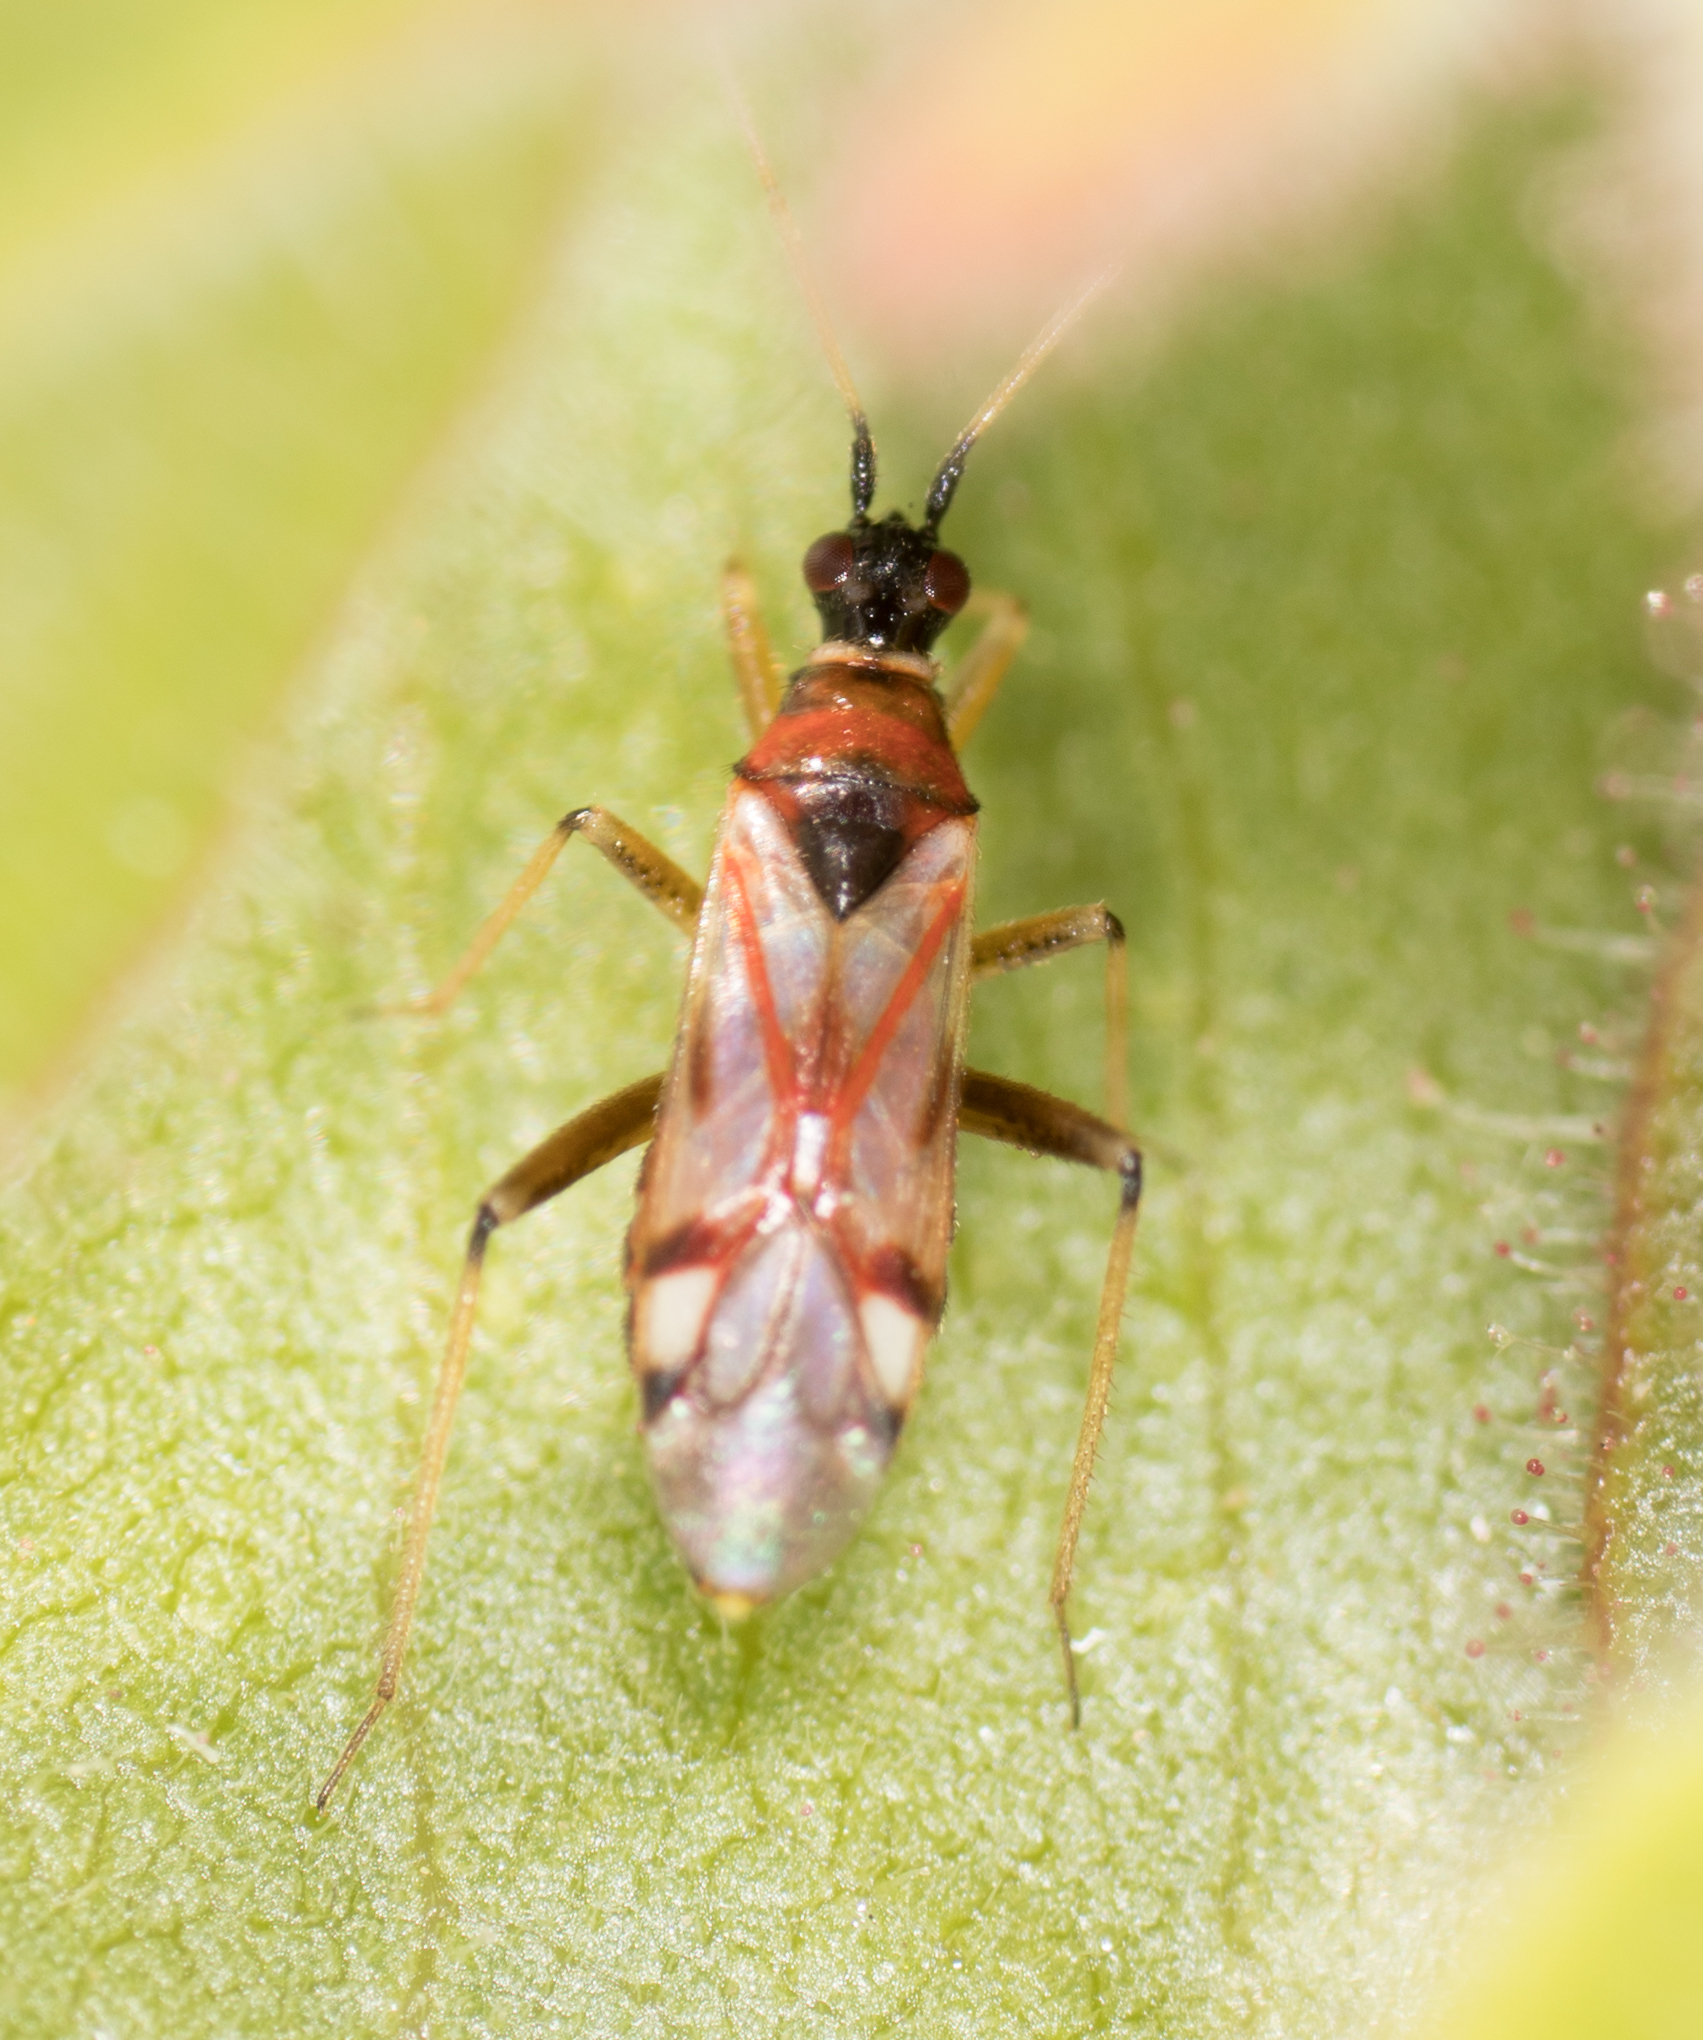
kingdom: Animalia
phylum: Arthropoda
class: Insecta
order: Hemiptera
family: Miridae
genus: Tupiocoris
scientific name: Tupiocoris rufescens
